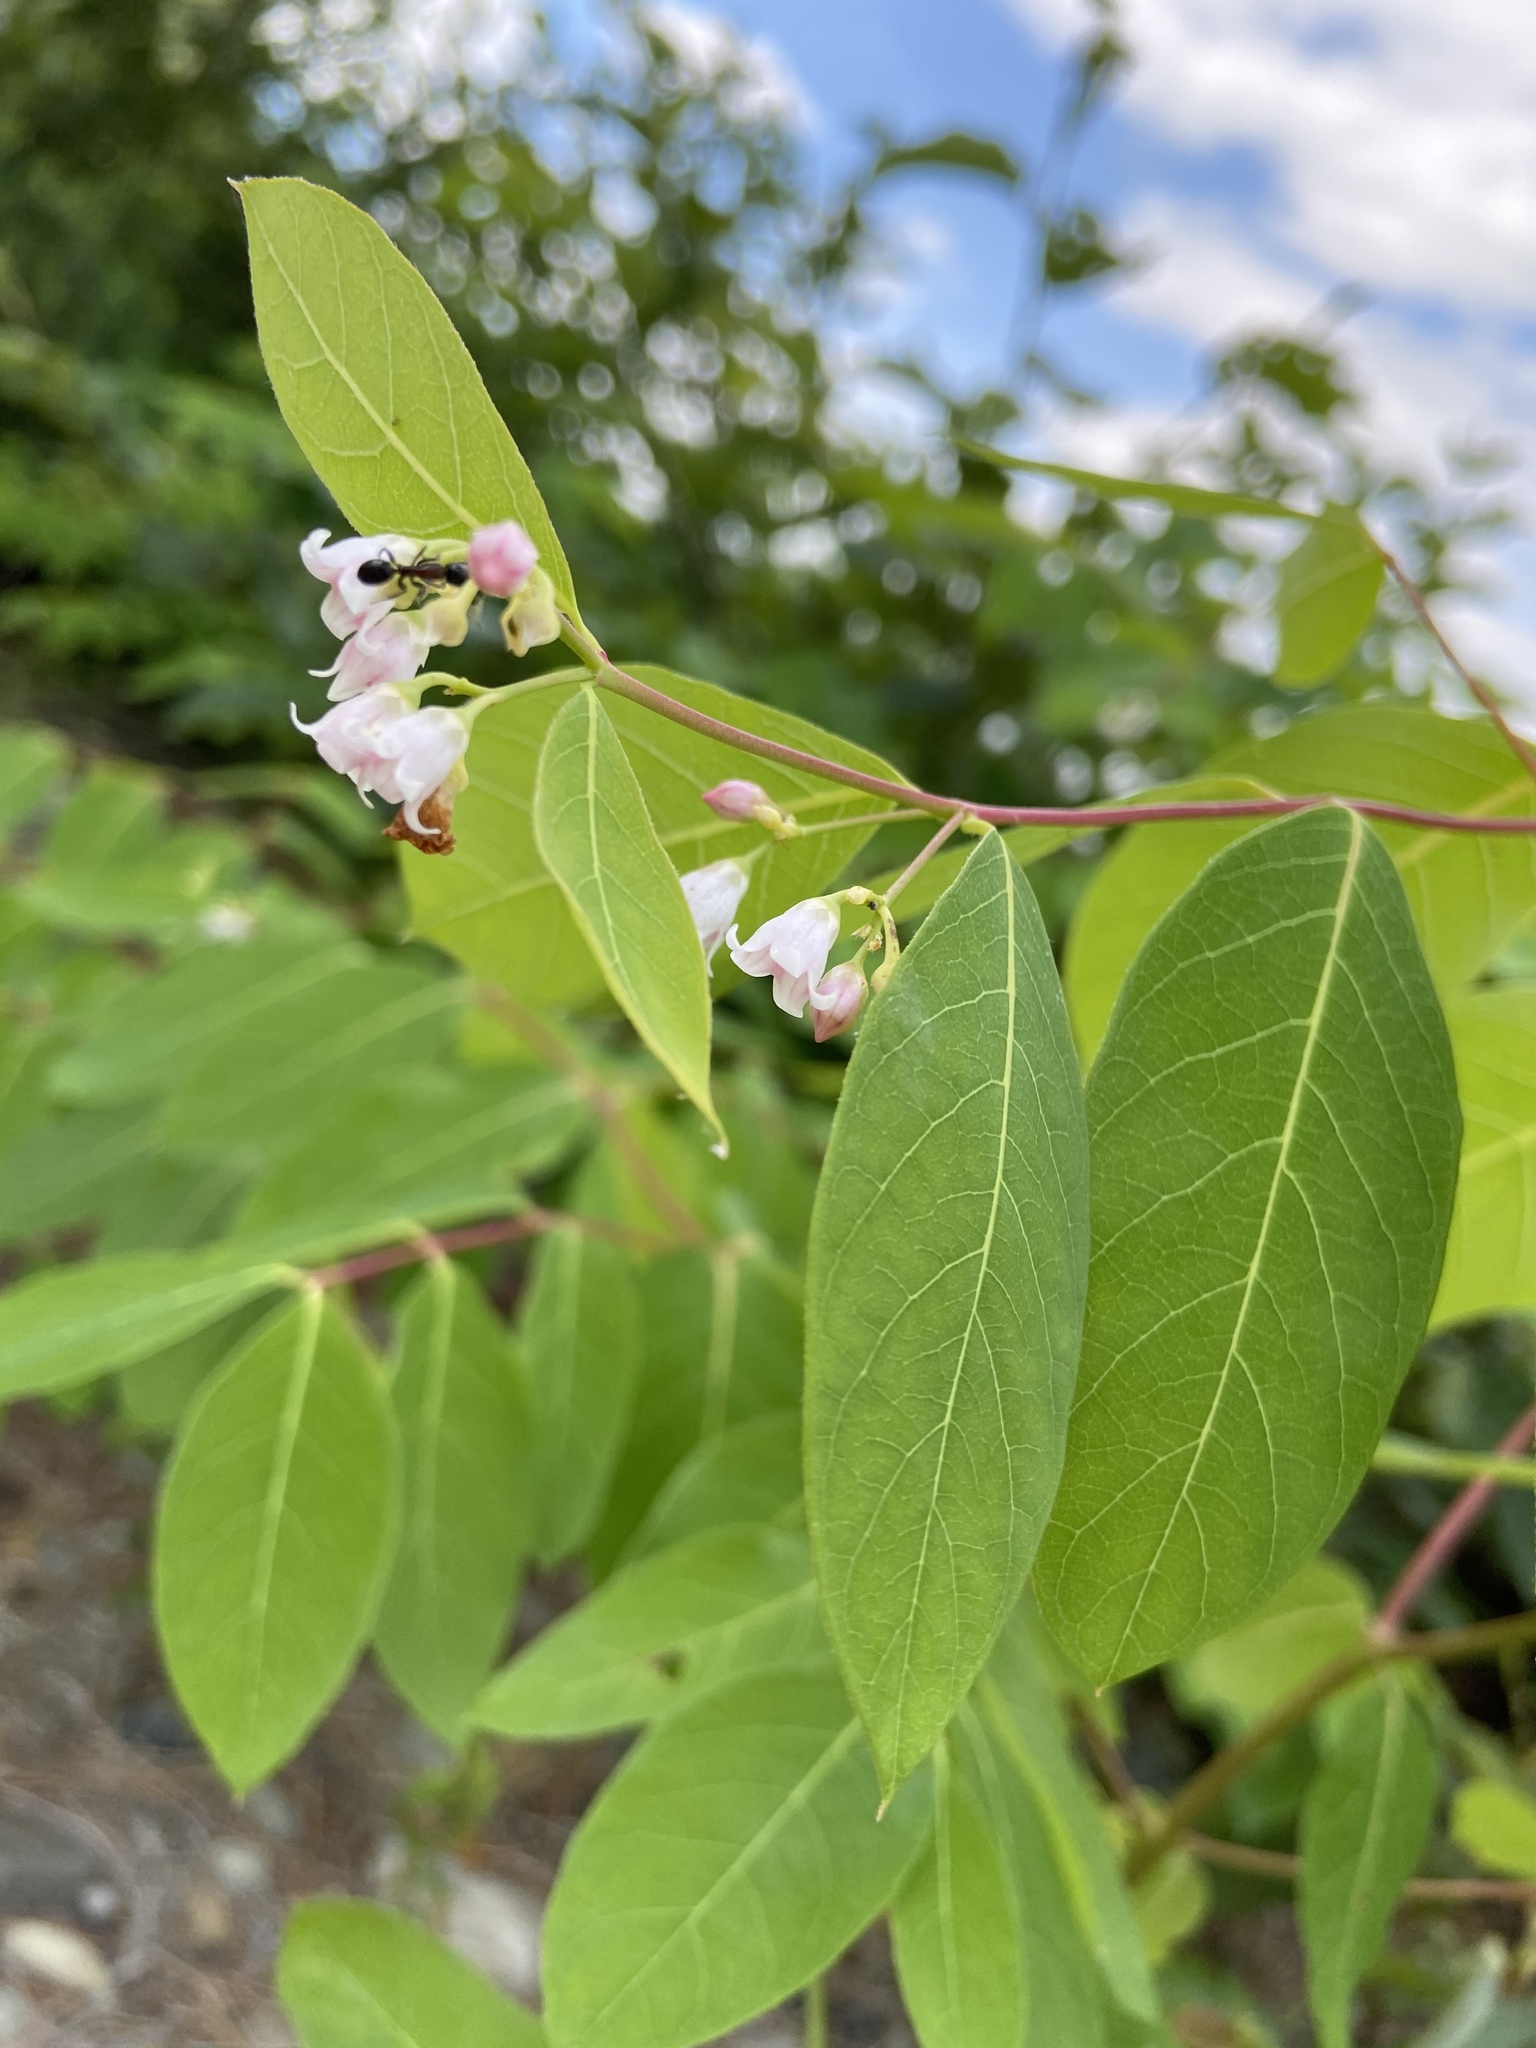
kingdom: Plantae
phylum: Tracheophyta
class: Magnoliopsida
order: Gentianales
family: Apocynaceae
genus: Apocynum
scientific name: Apocynum androsaemifolium
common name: Spreading dogbane
